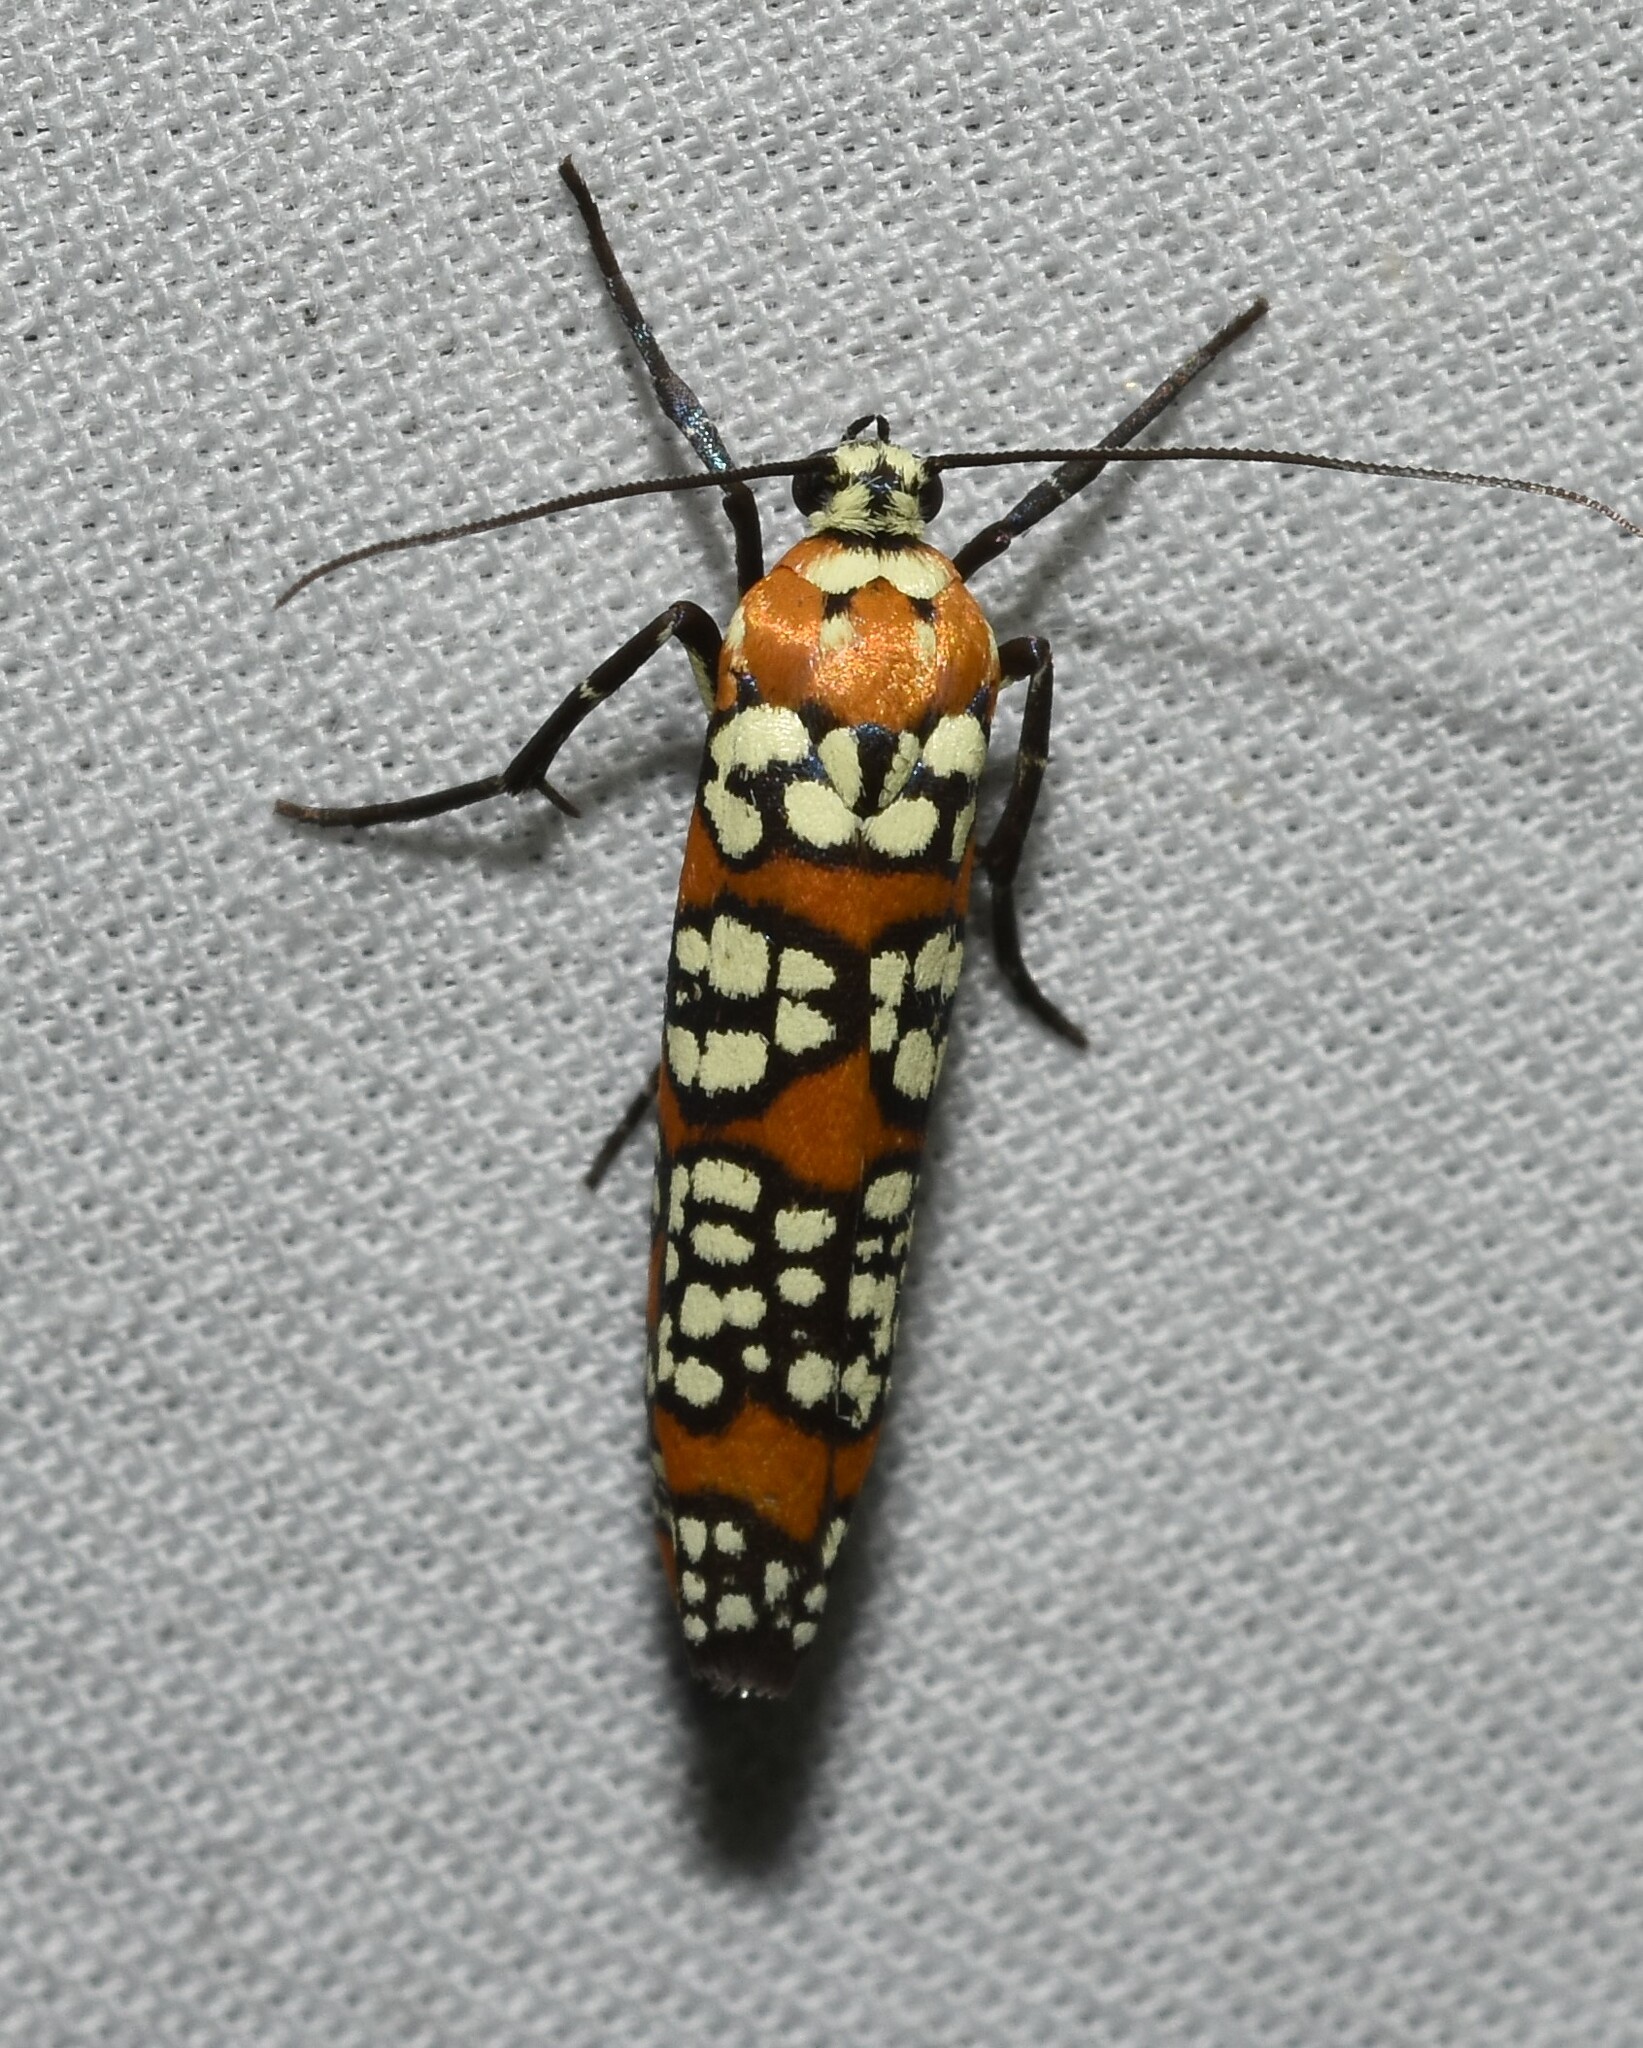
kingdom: Animalia
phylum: Arthropoda
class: Insecta
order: Lepidoptera
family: Attevidae
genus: Atteva
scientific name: Atteva punctella
